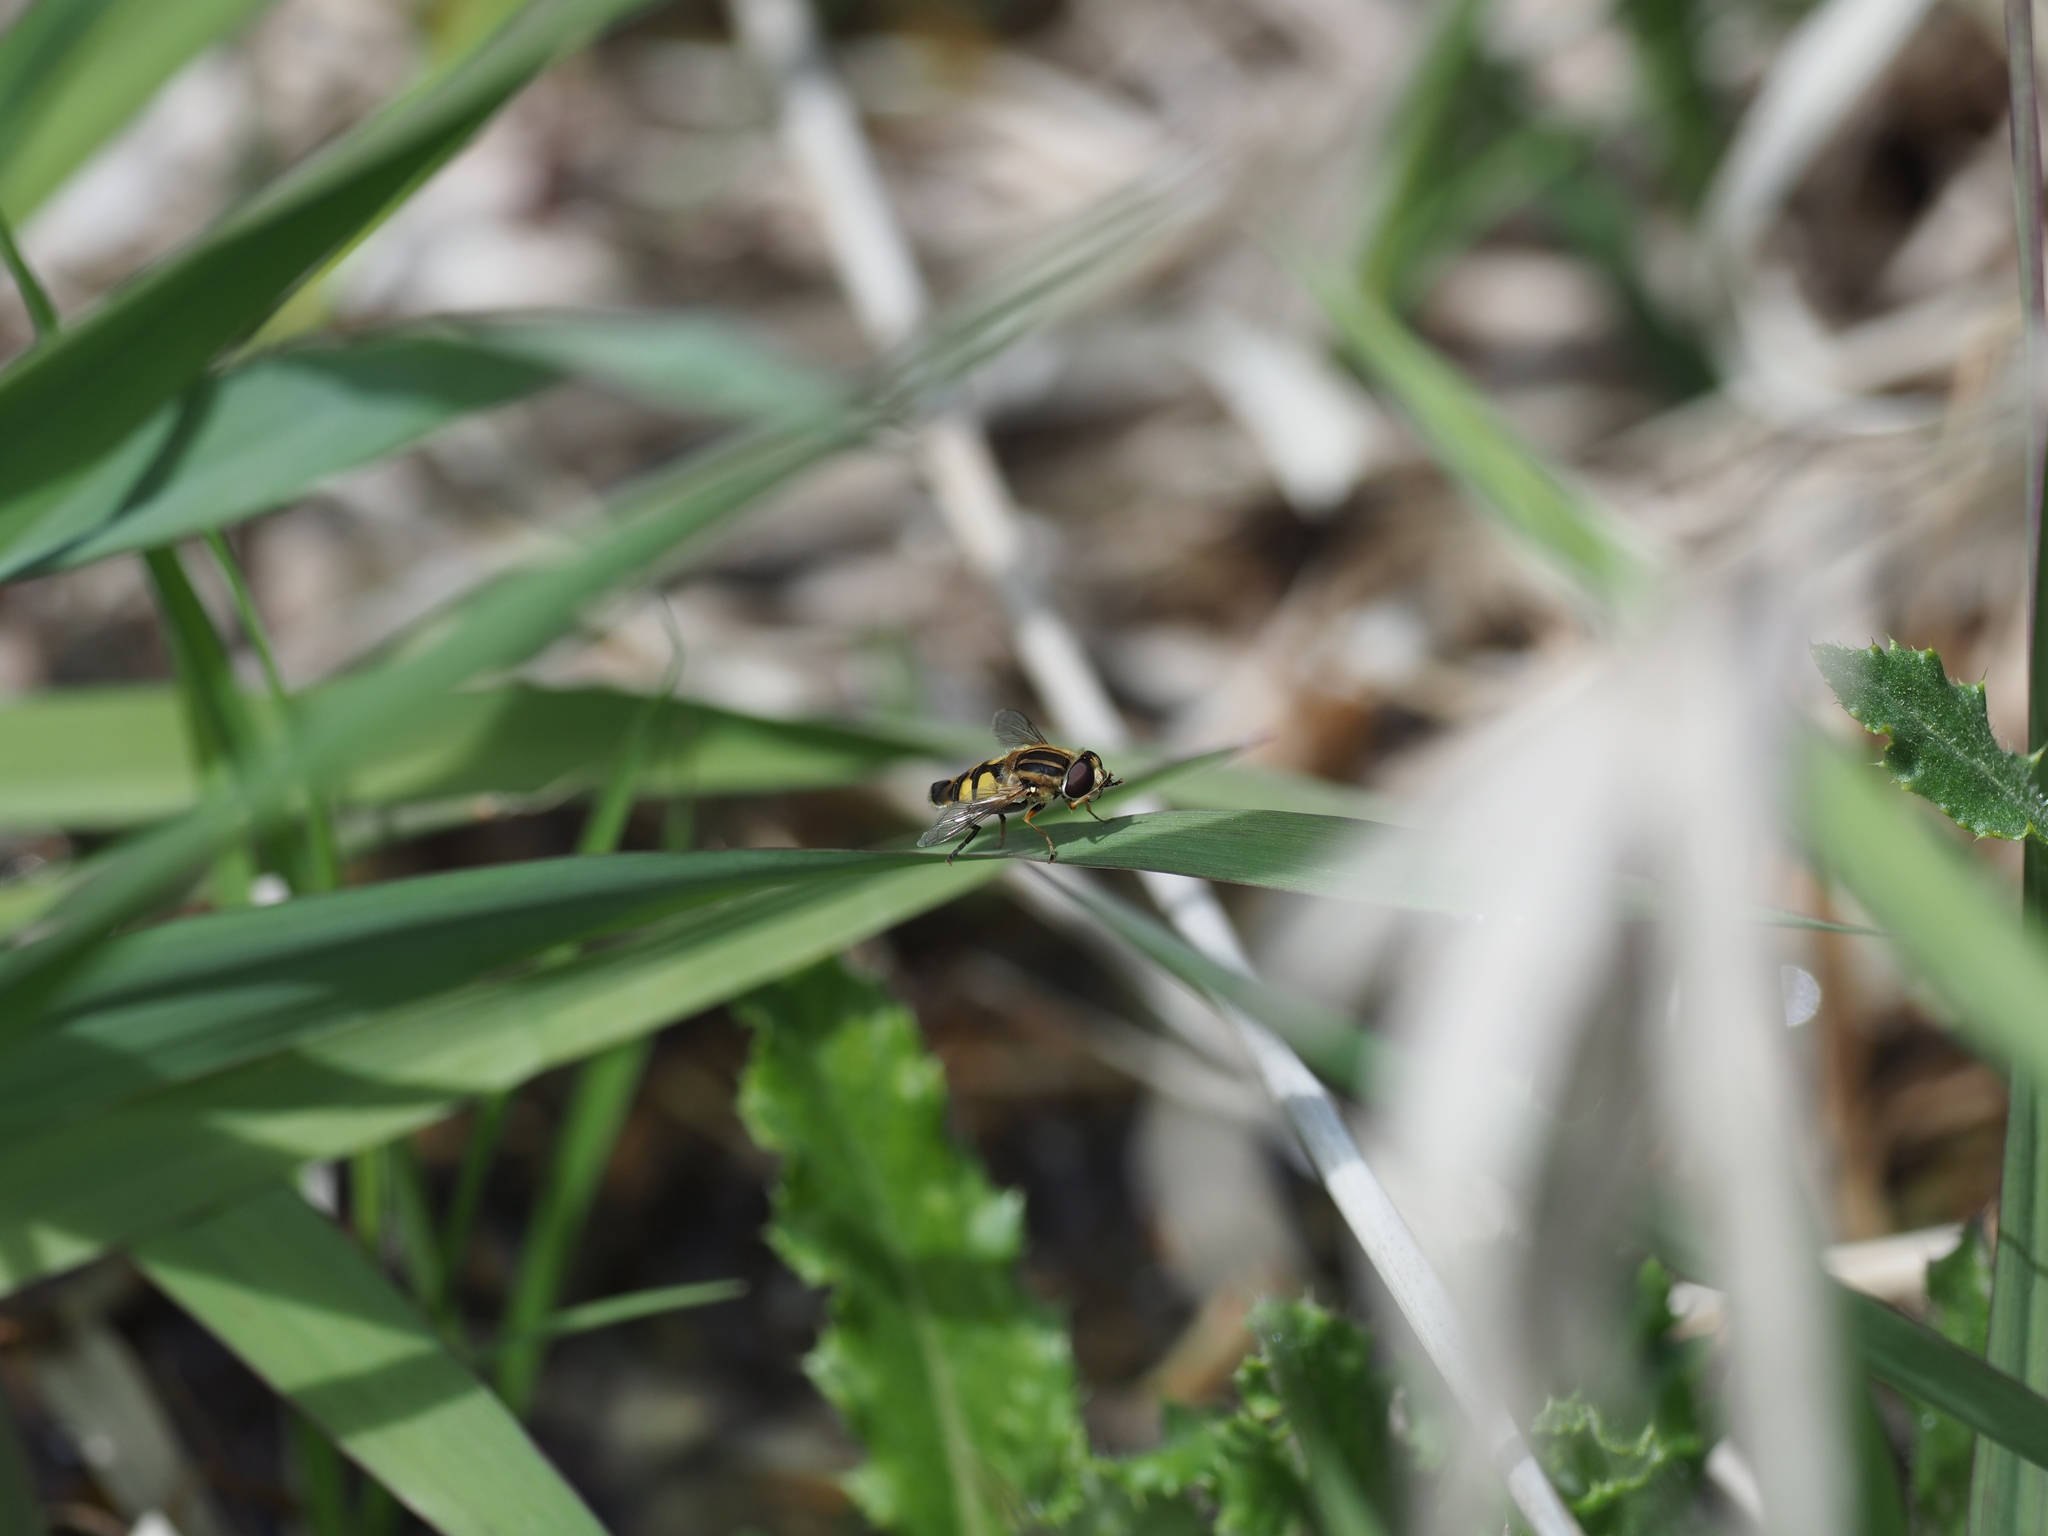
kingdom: Animalia
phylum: Arthropoda
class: Insecta
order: Diptera
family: Syrphidae
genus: Helophilus
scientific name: Helophilus latifrons
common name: Broad-headed marsh fly
